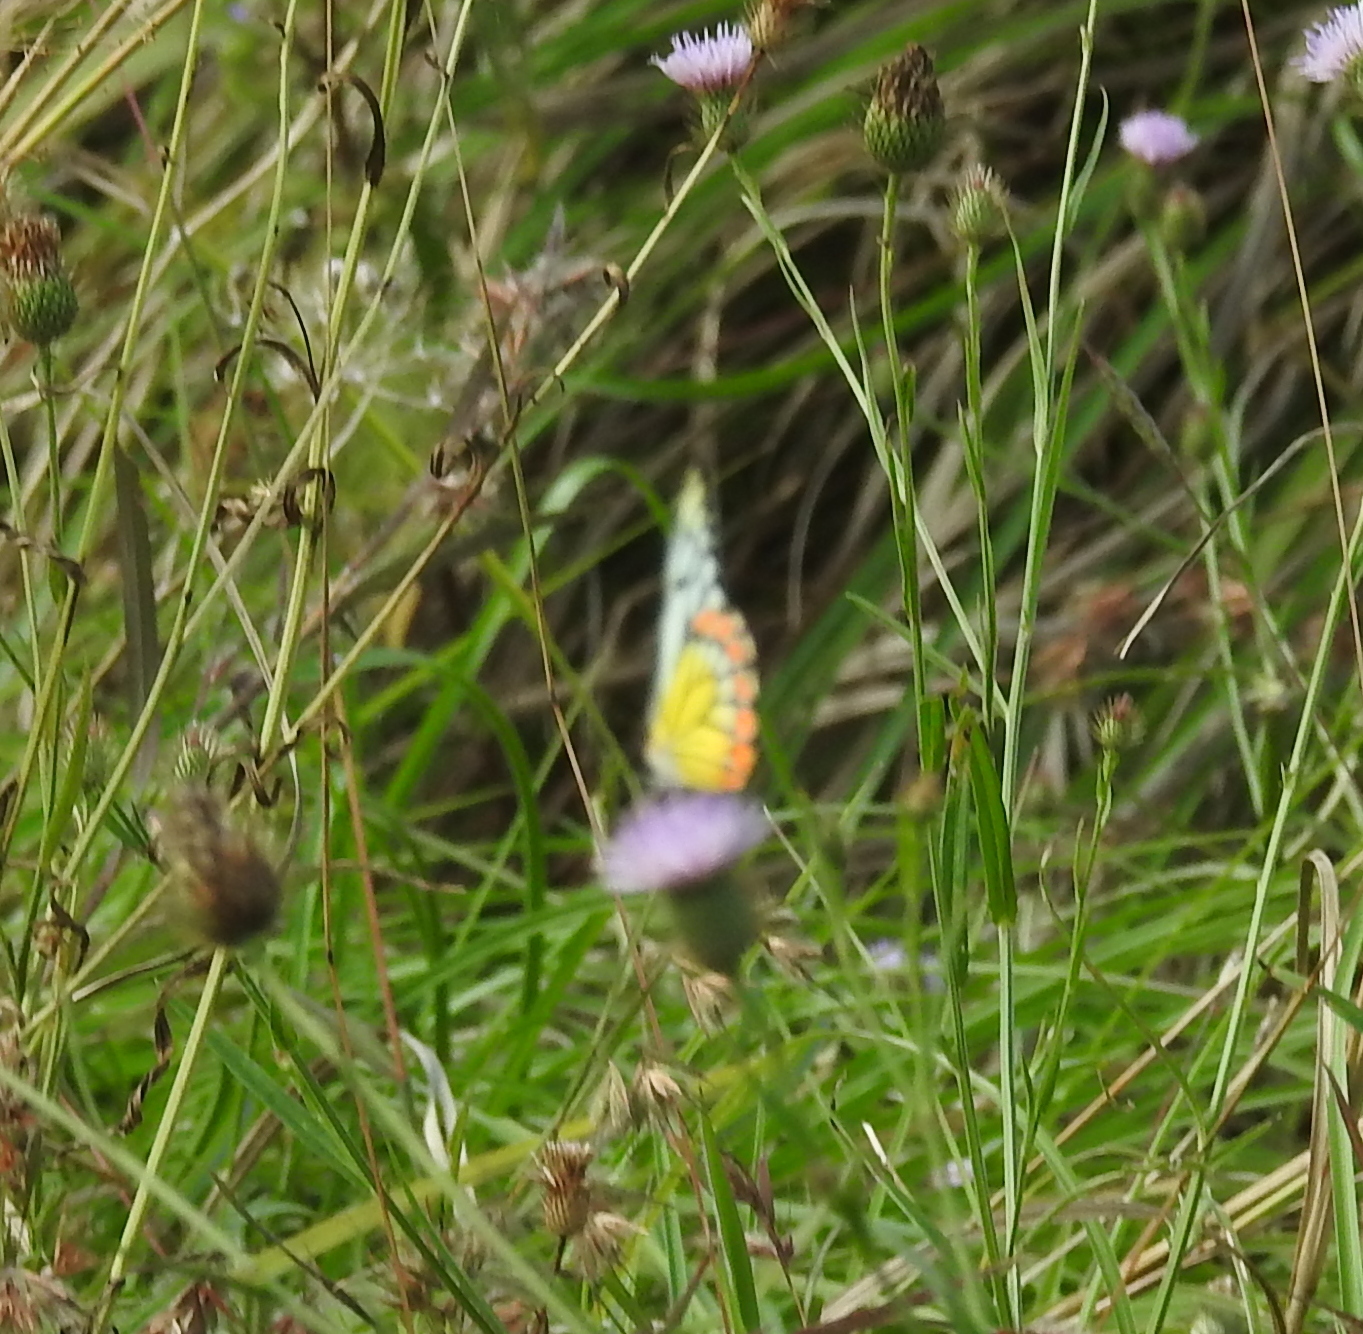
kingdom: Animalia
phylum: Arthropoda
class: Insecta
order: Lepidoptera
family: Pieridae
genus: Prioneris
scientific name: Prioneris sita
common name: Painted sawtooth
